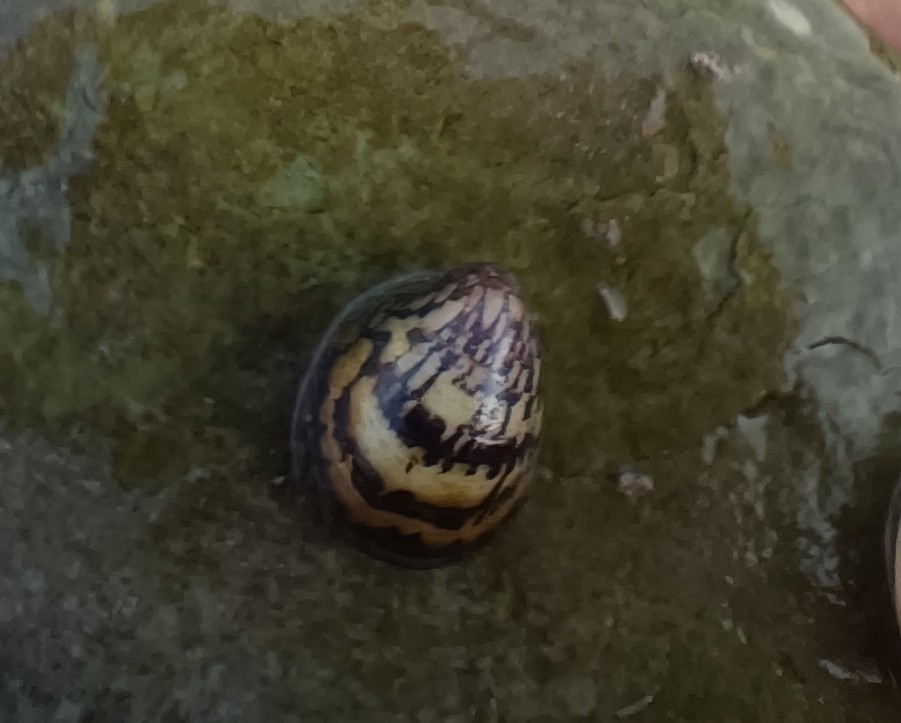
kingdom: Animalia
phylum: Mollusca
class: Gastropoda
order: Cycloneritida
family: Neritidae
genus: Neripteron
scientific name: Neripteron
